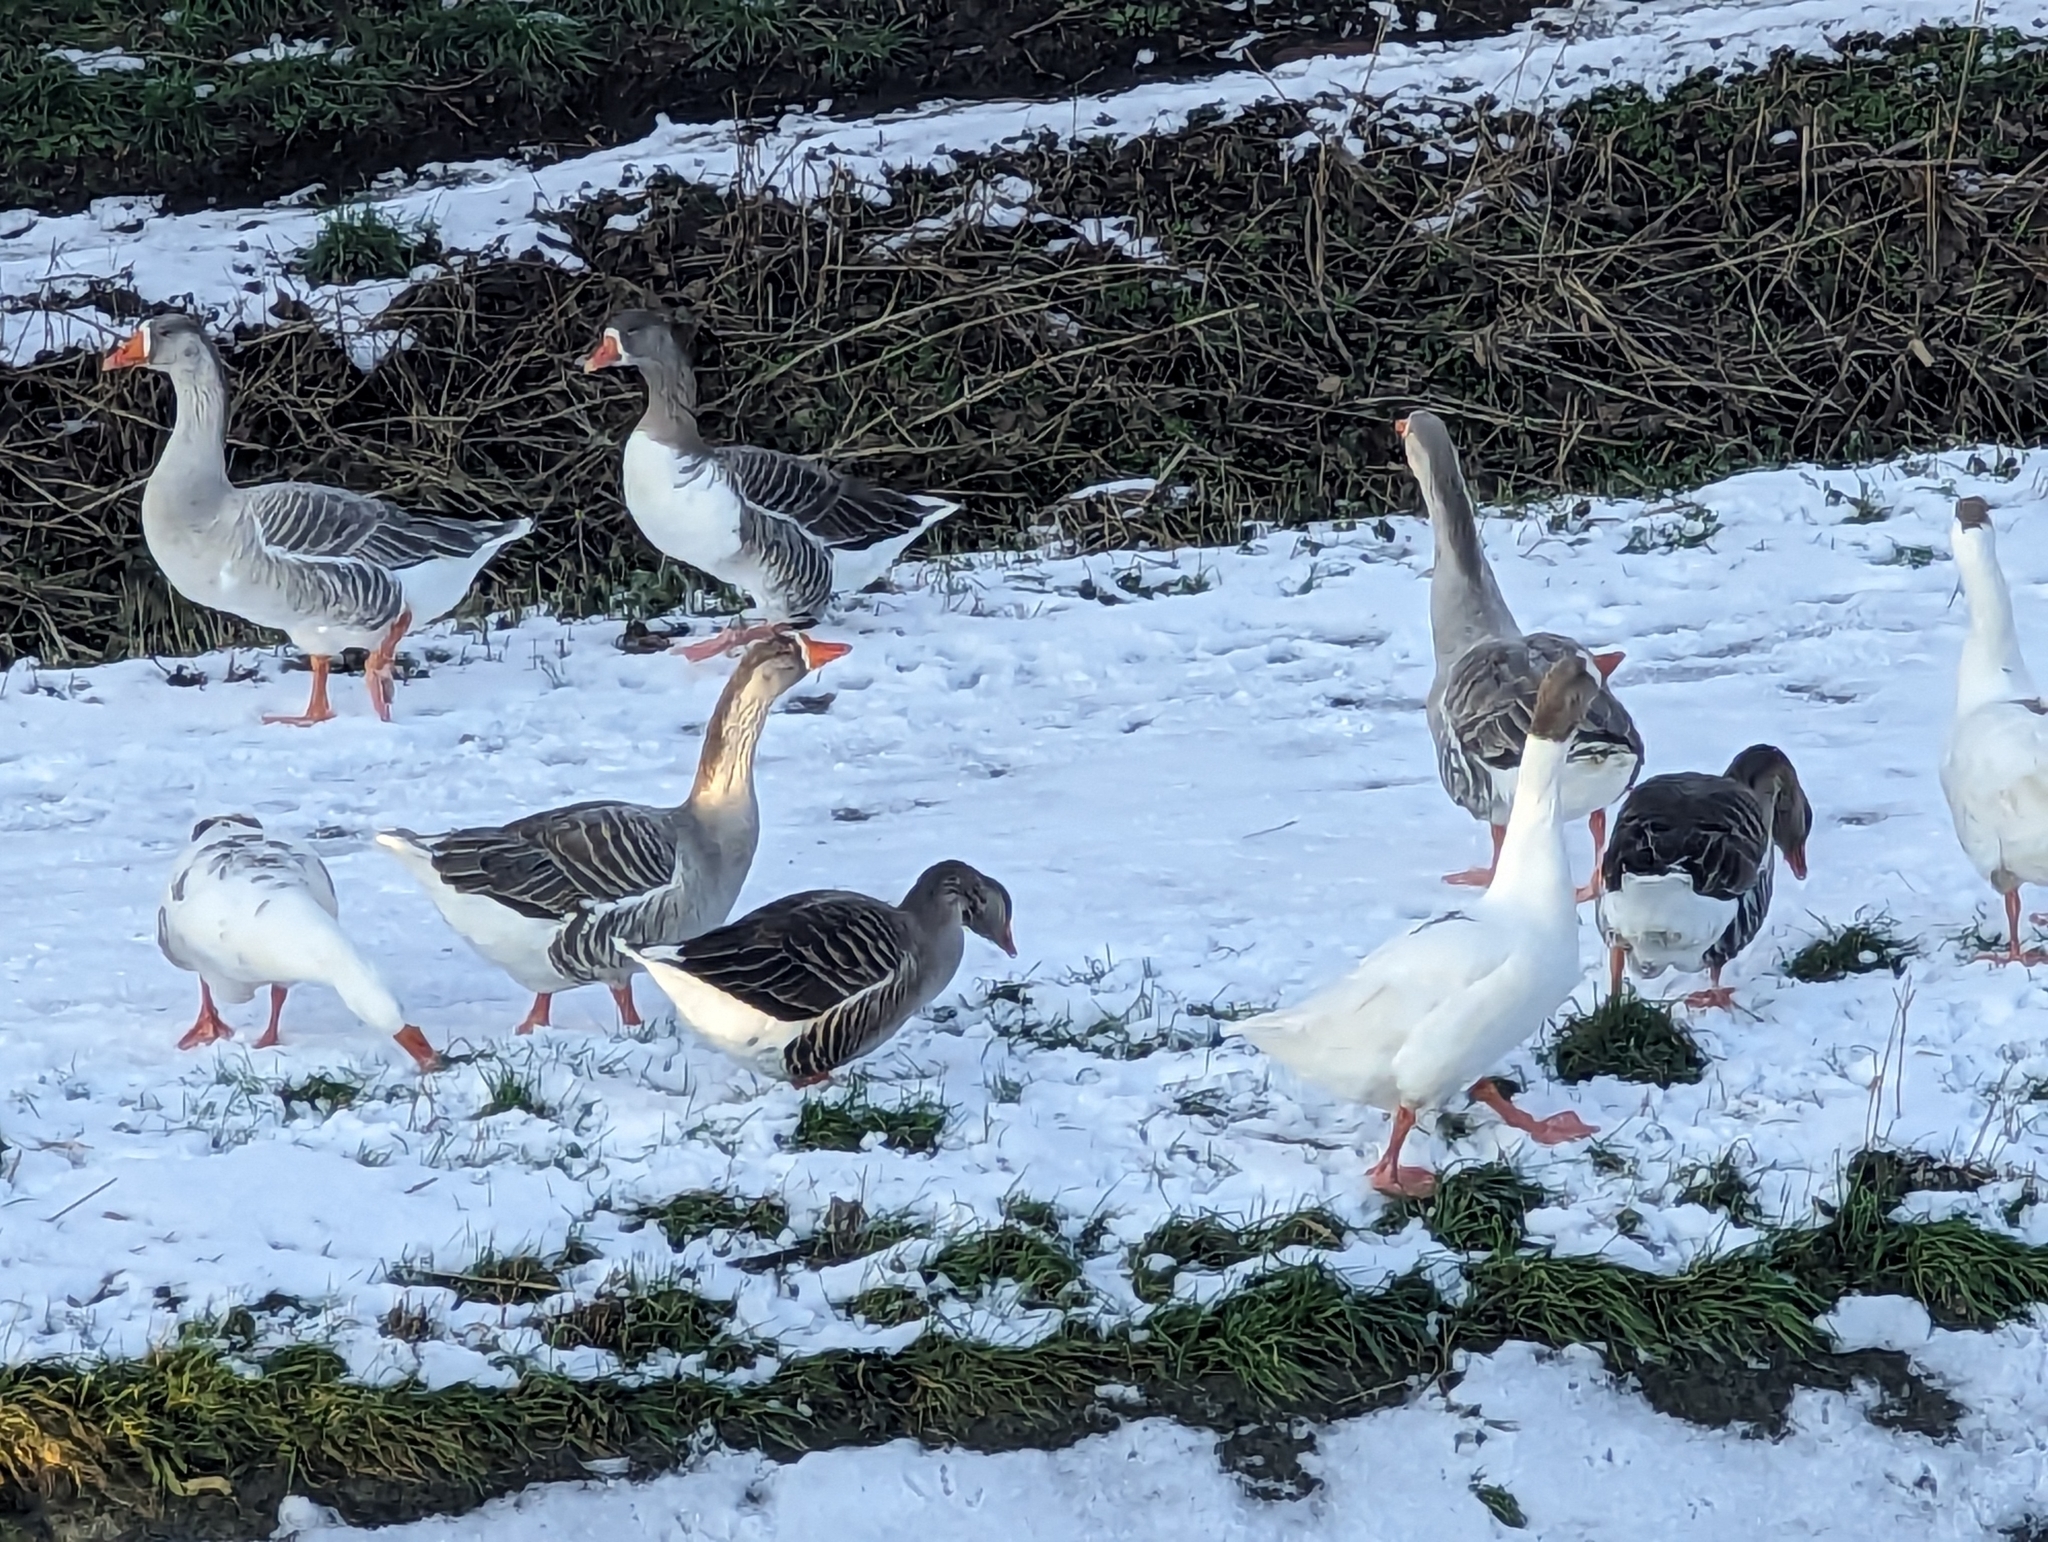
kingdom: Animalia
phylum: Chordata
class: Aves
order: Anseriformes
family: Anatidae
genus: Anser
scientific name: Anser
